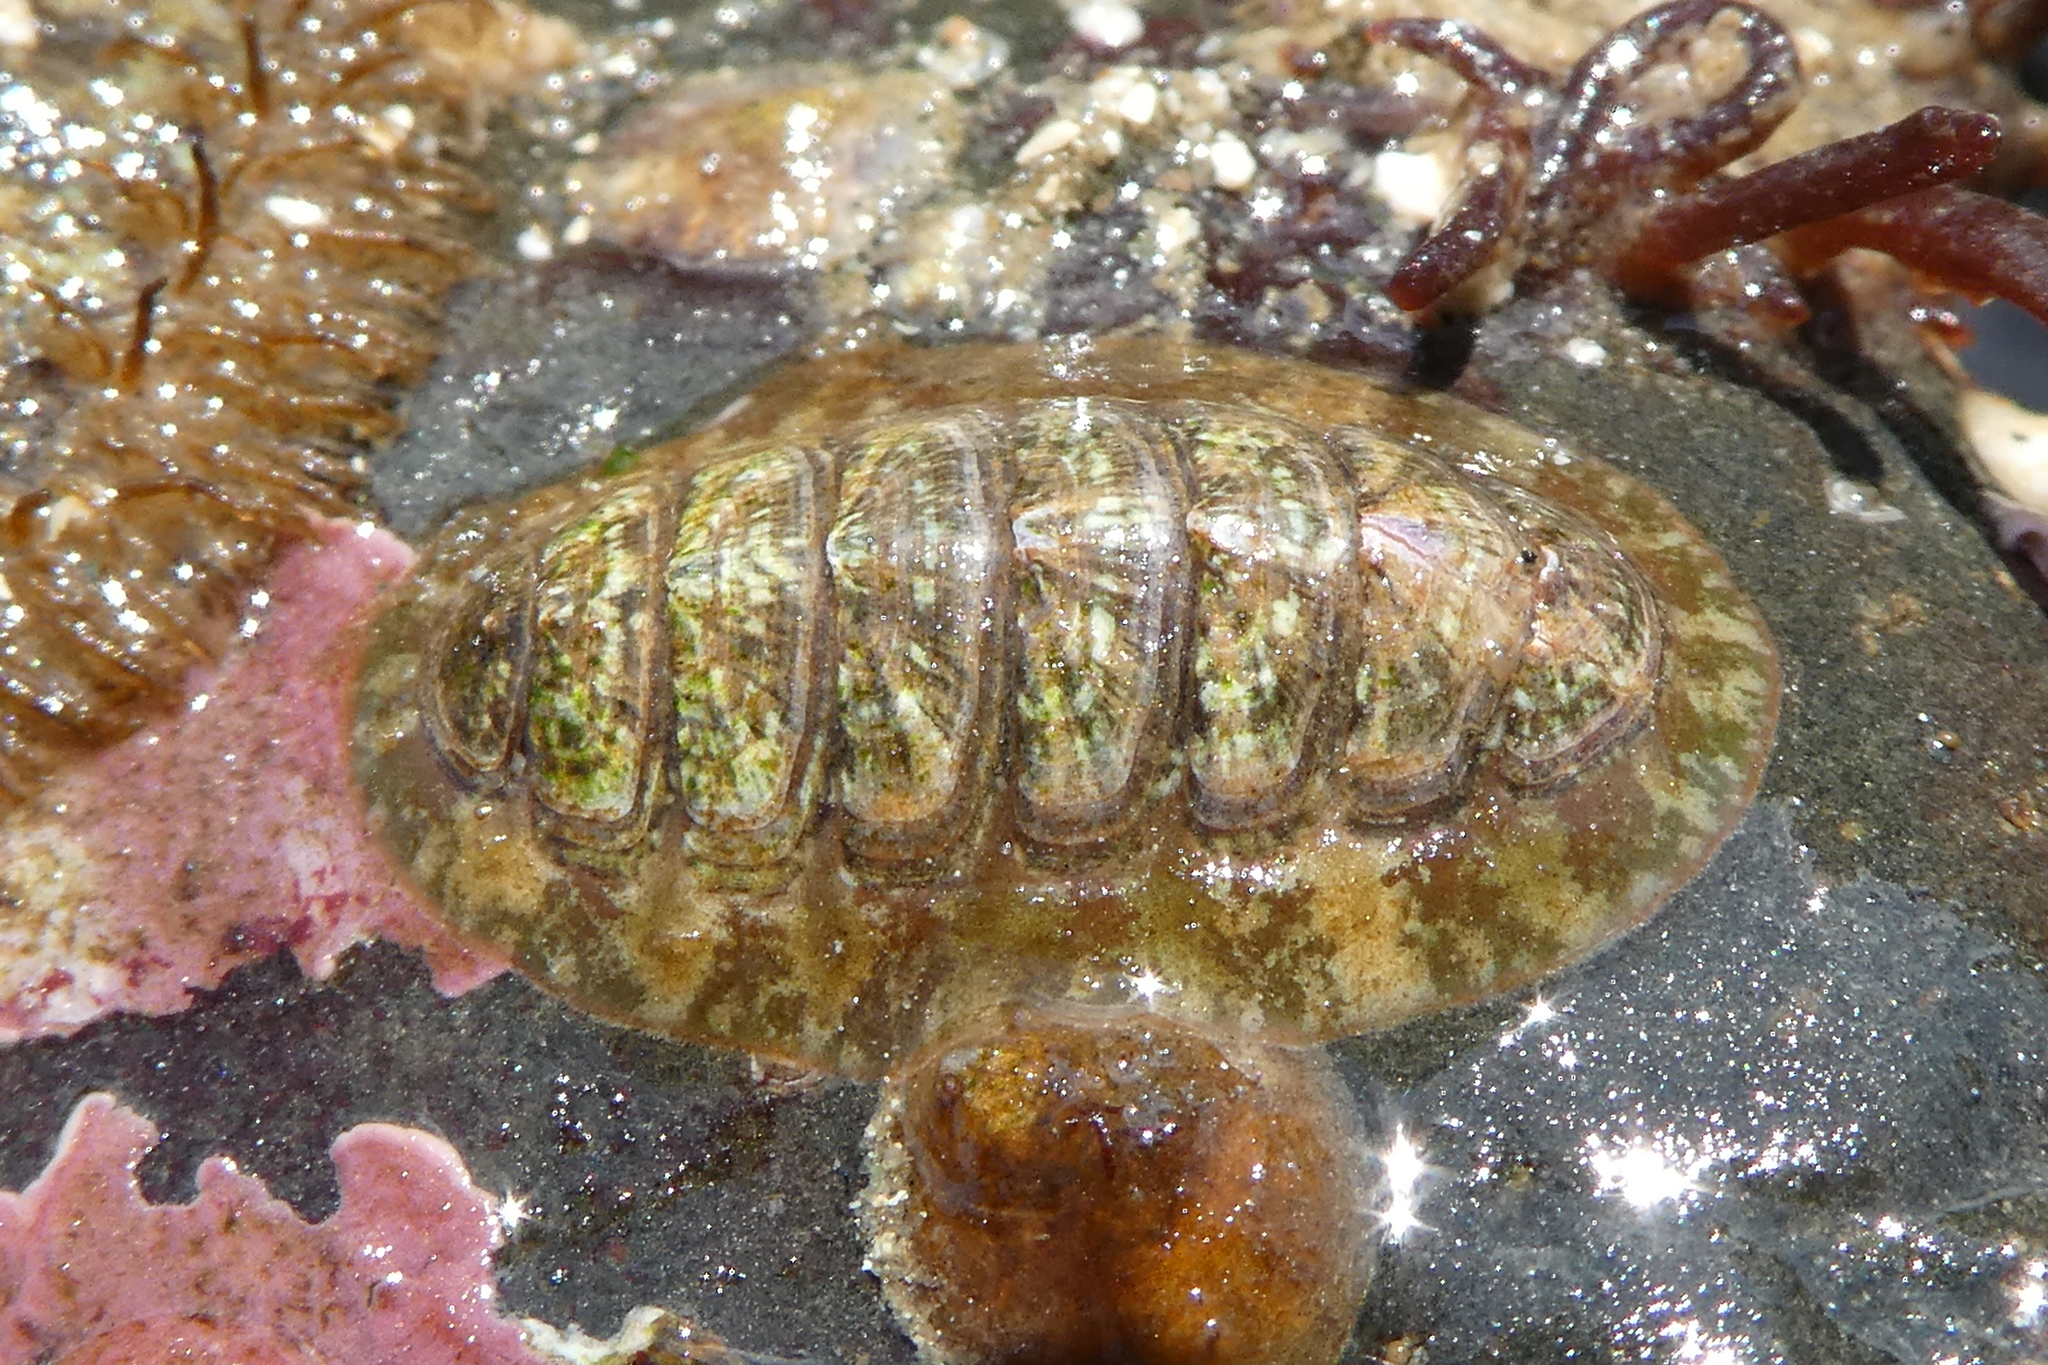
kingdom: Animalia
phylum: Mollusca
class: Polyplacophora
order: Chitonida
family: Tonicellidae
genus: Cyanoplax
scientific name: Cyanoplax dentiens
